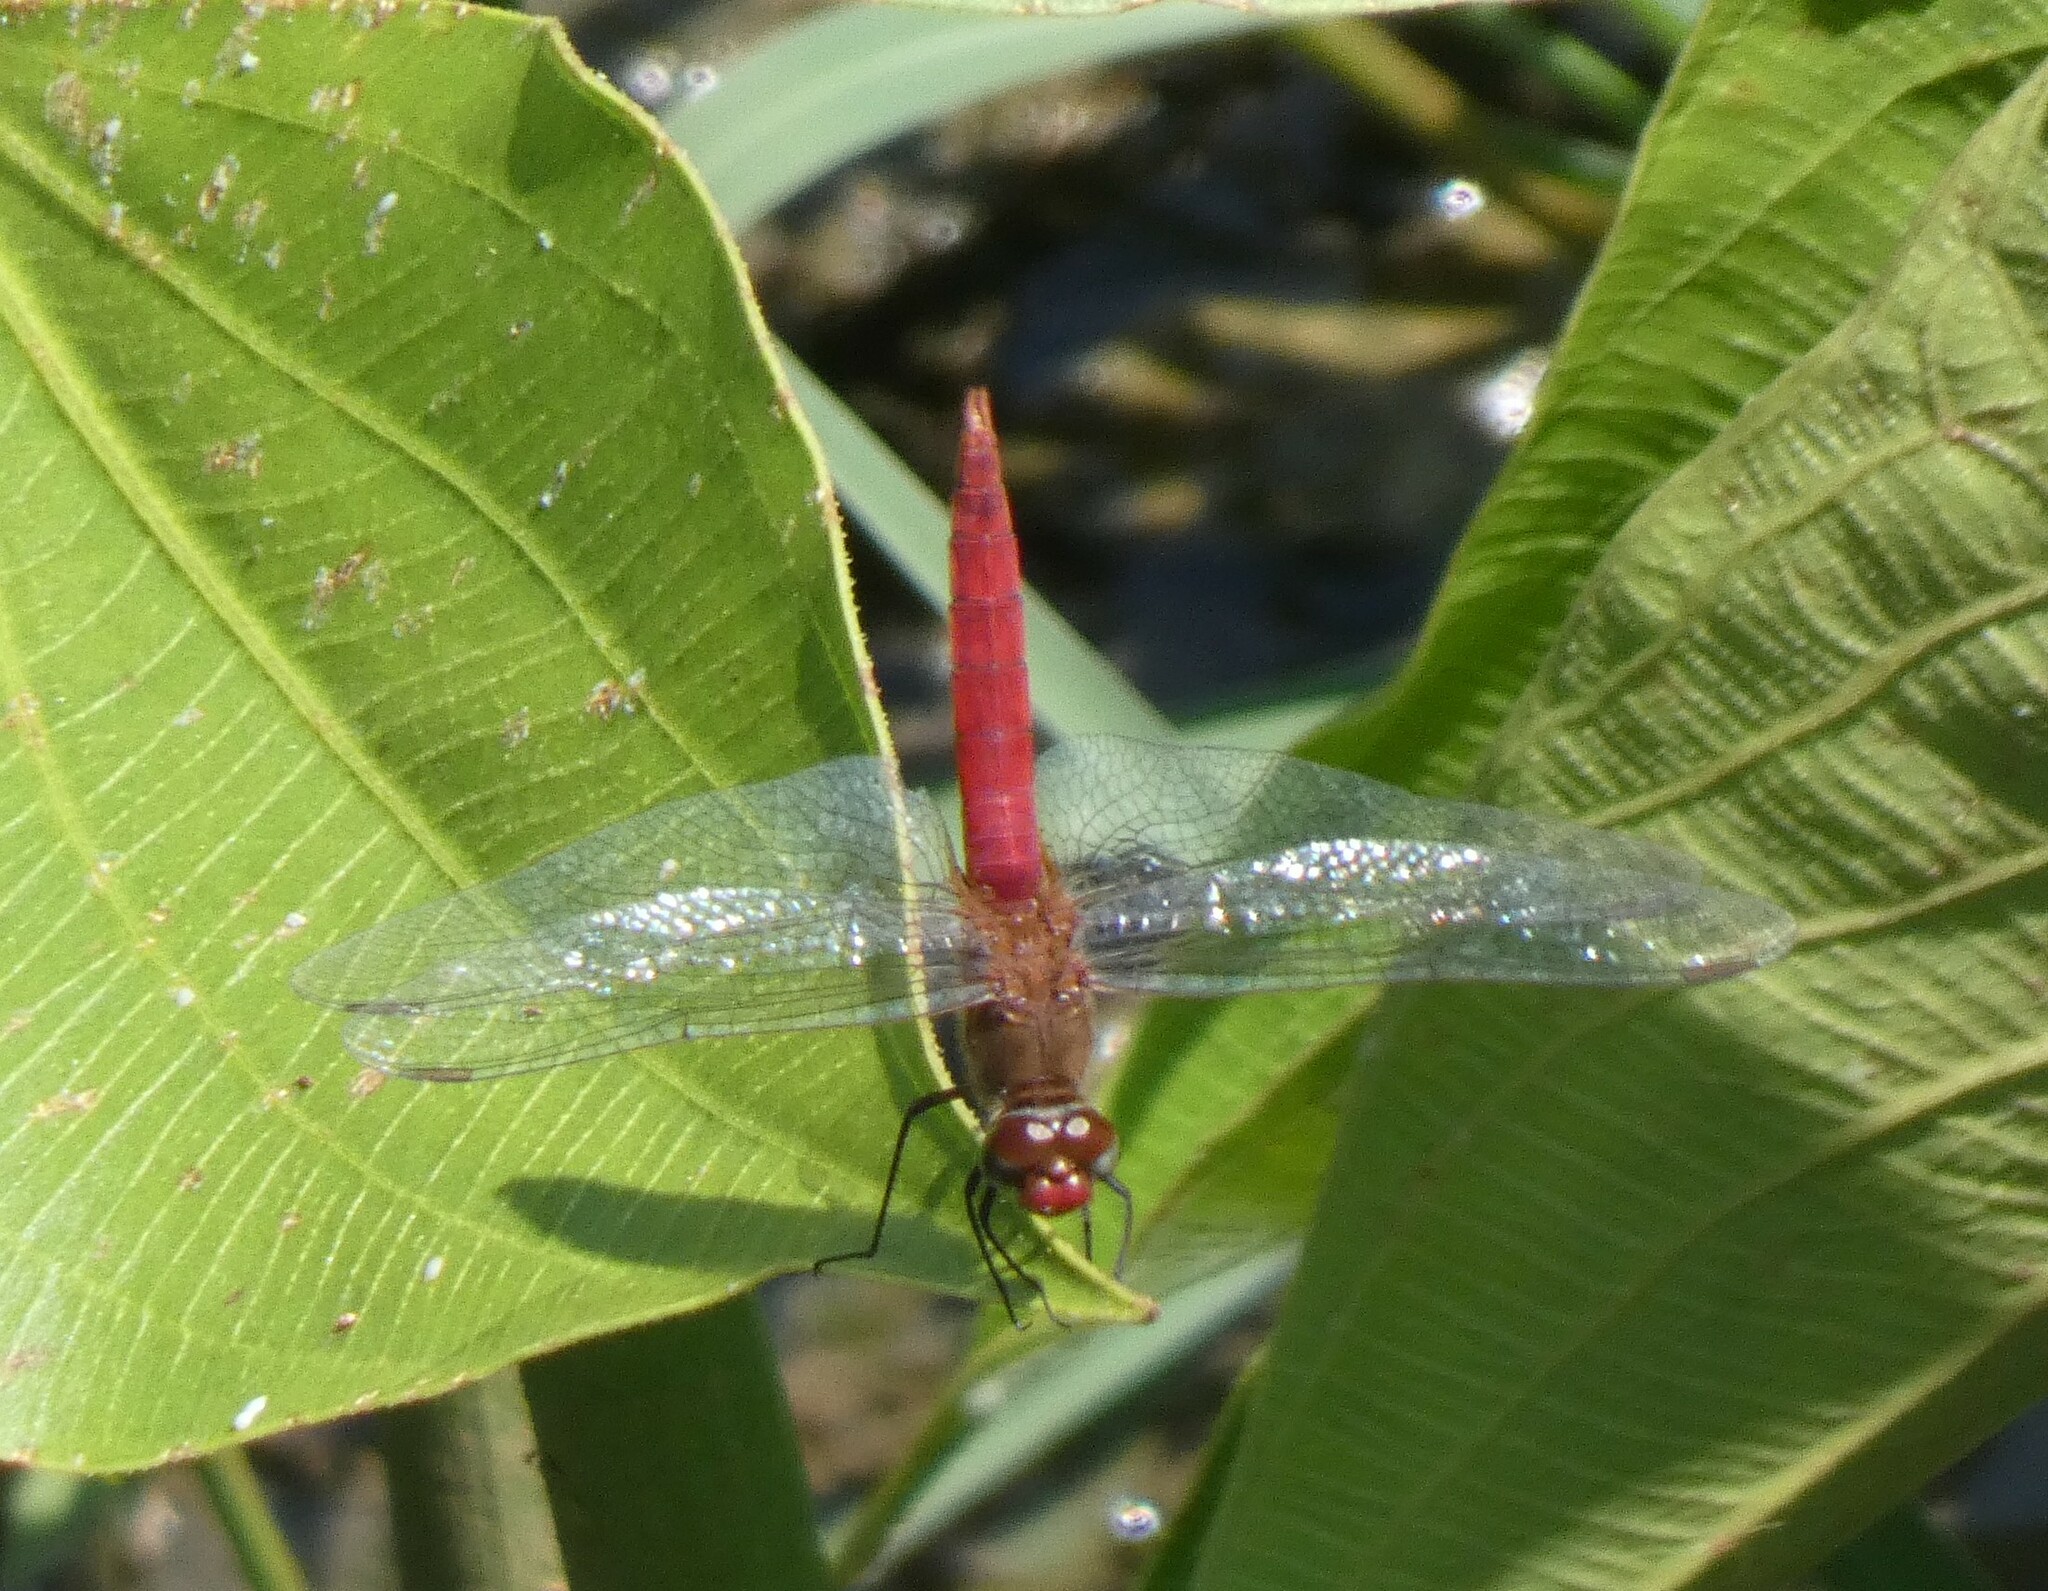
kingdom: Animalia
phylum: Arthropoda
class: Insecta
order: Odonata
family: Libellulidae
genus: Brachymesia
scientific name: Brachymesia furcata
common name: Red-taled pennant
